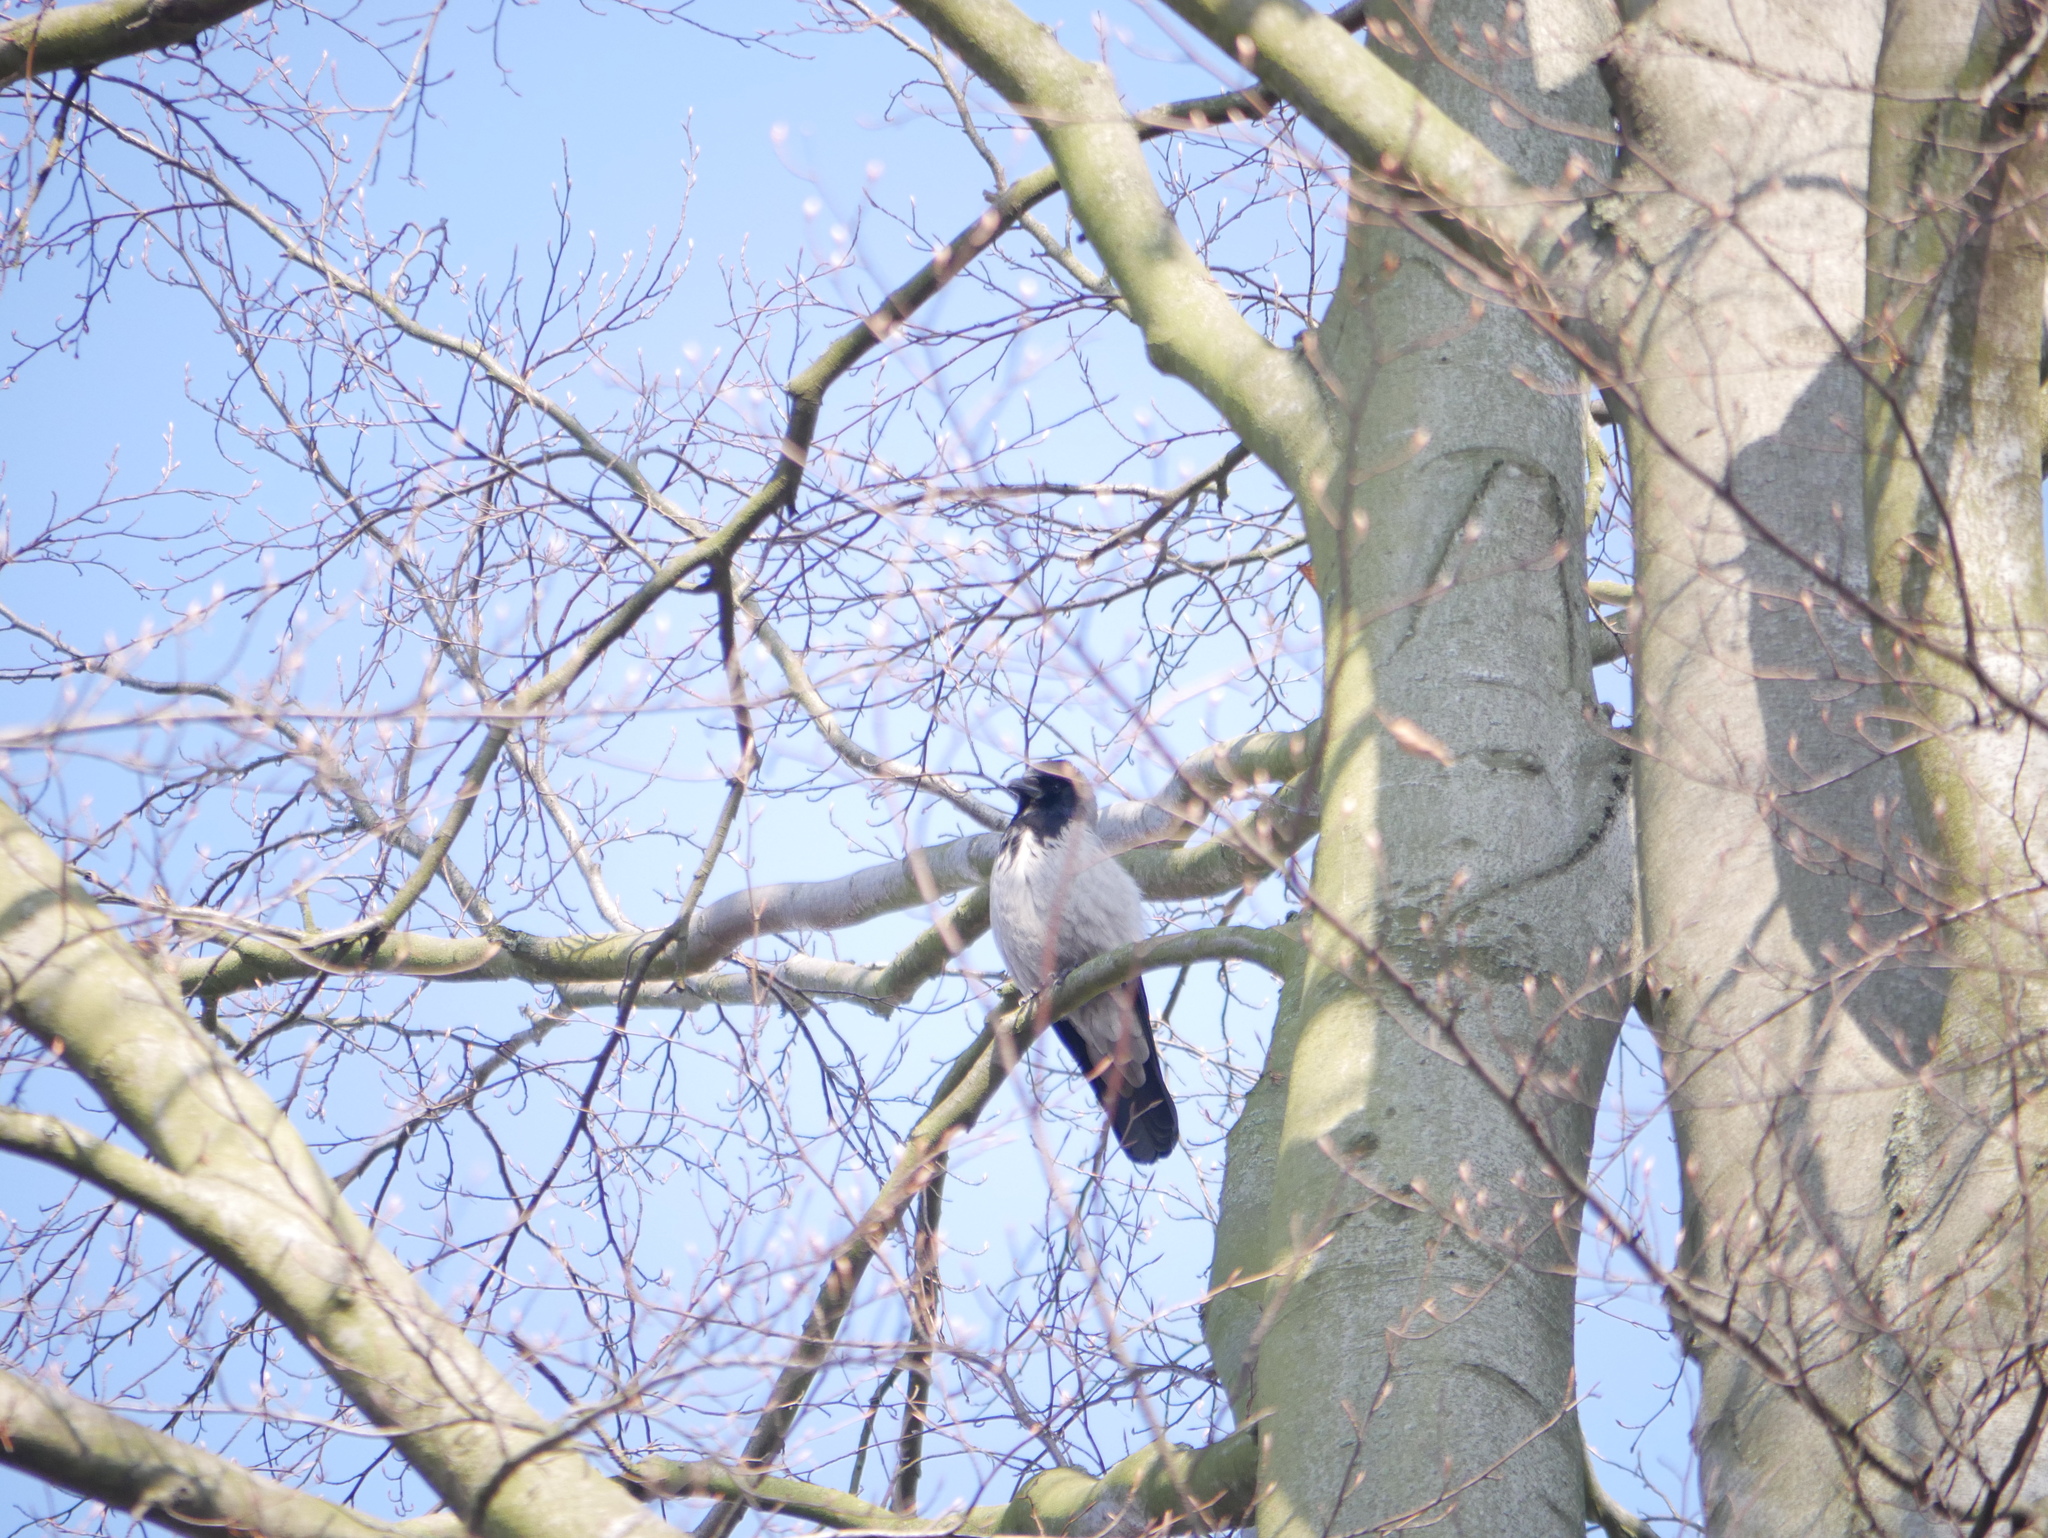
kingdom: Animalia
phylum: Chordata
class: Aves
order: Passeriformes
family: Corvidae
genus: Corvus
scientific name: Corvus cornix
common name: Hooded crow
